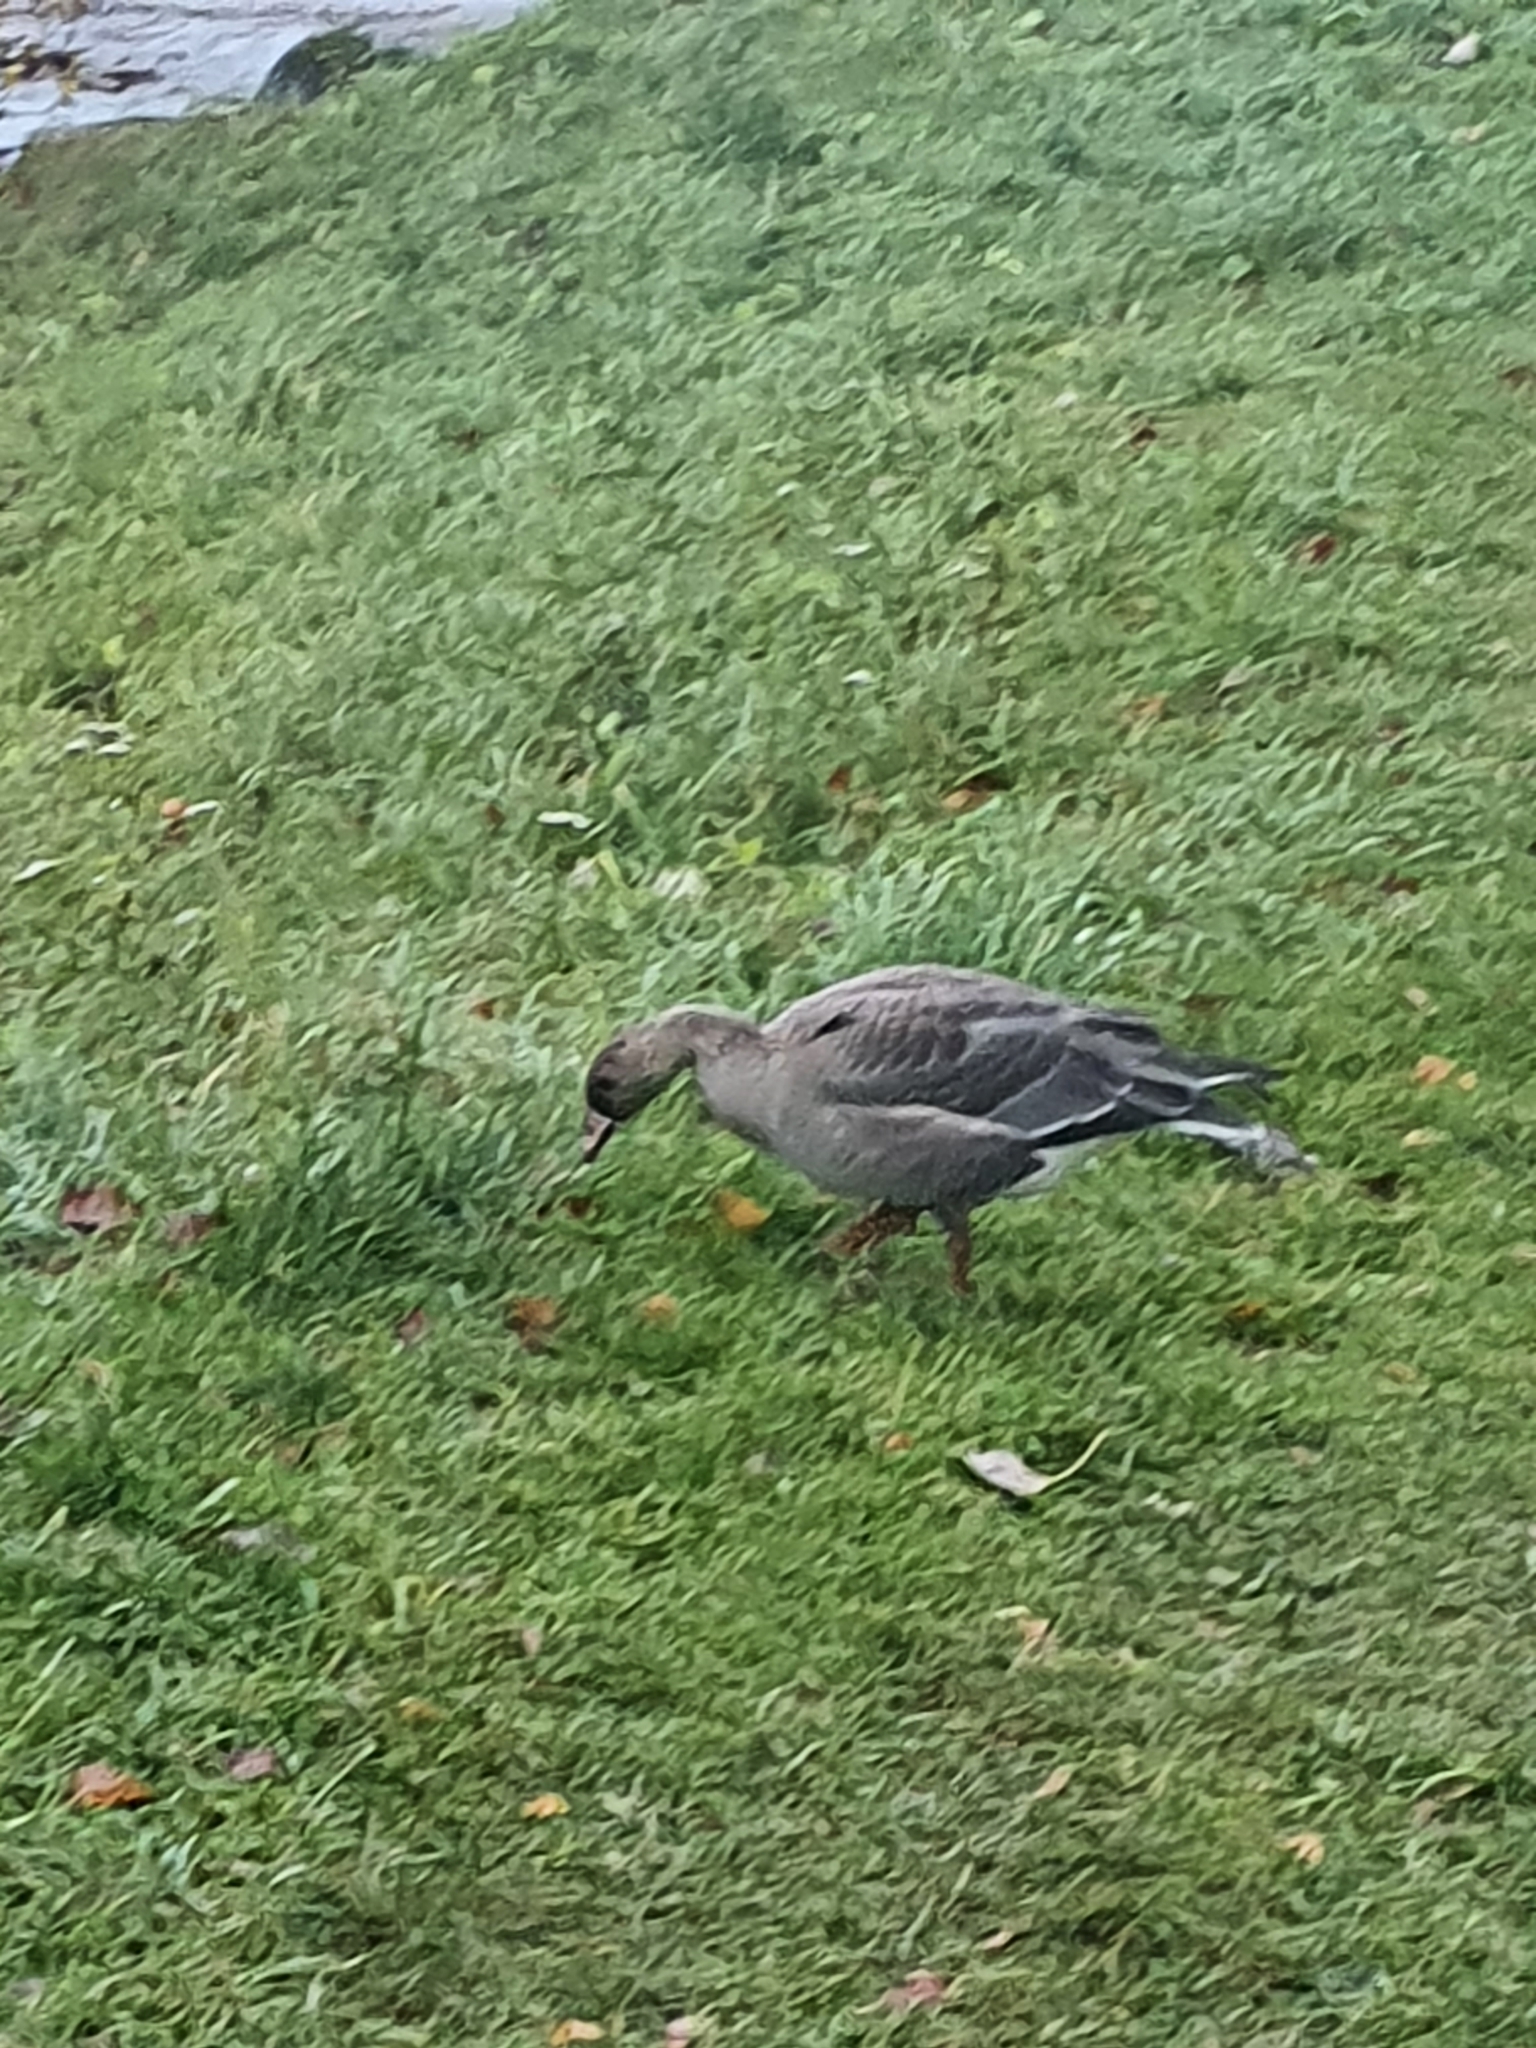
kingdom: Animalia
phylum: Chordata
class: Aves
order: Anseriformes
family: Anatidae
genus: Anser
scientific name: Anser albifrons
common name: Greater white-fronted goose
